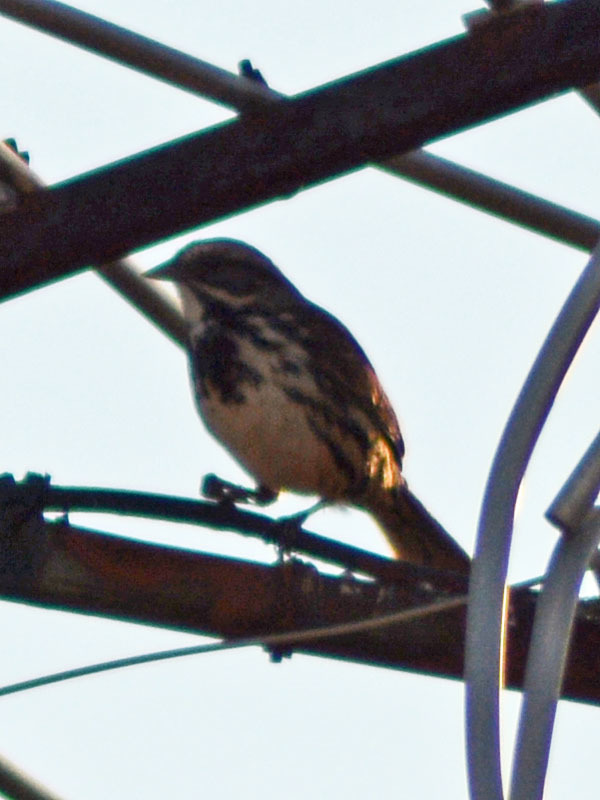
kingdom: Animalia
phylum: Chordata
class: Aves
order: Passeriformes
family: Passerellidae
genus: Melospiza
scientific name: Melospiza melodia
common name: Song sparrow
